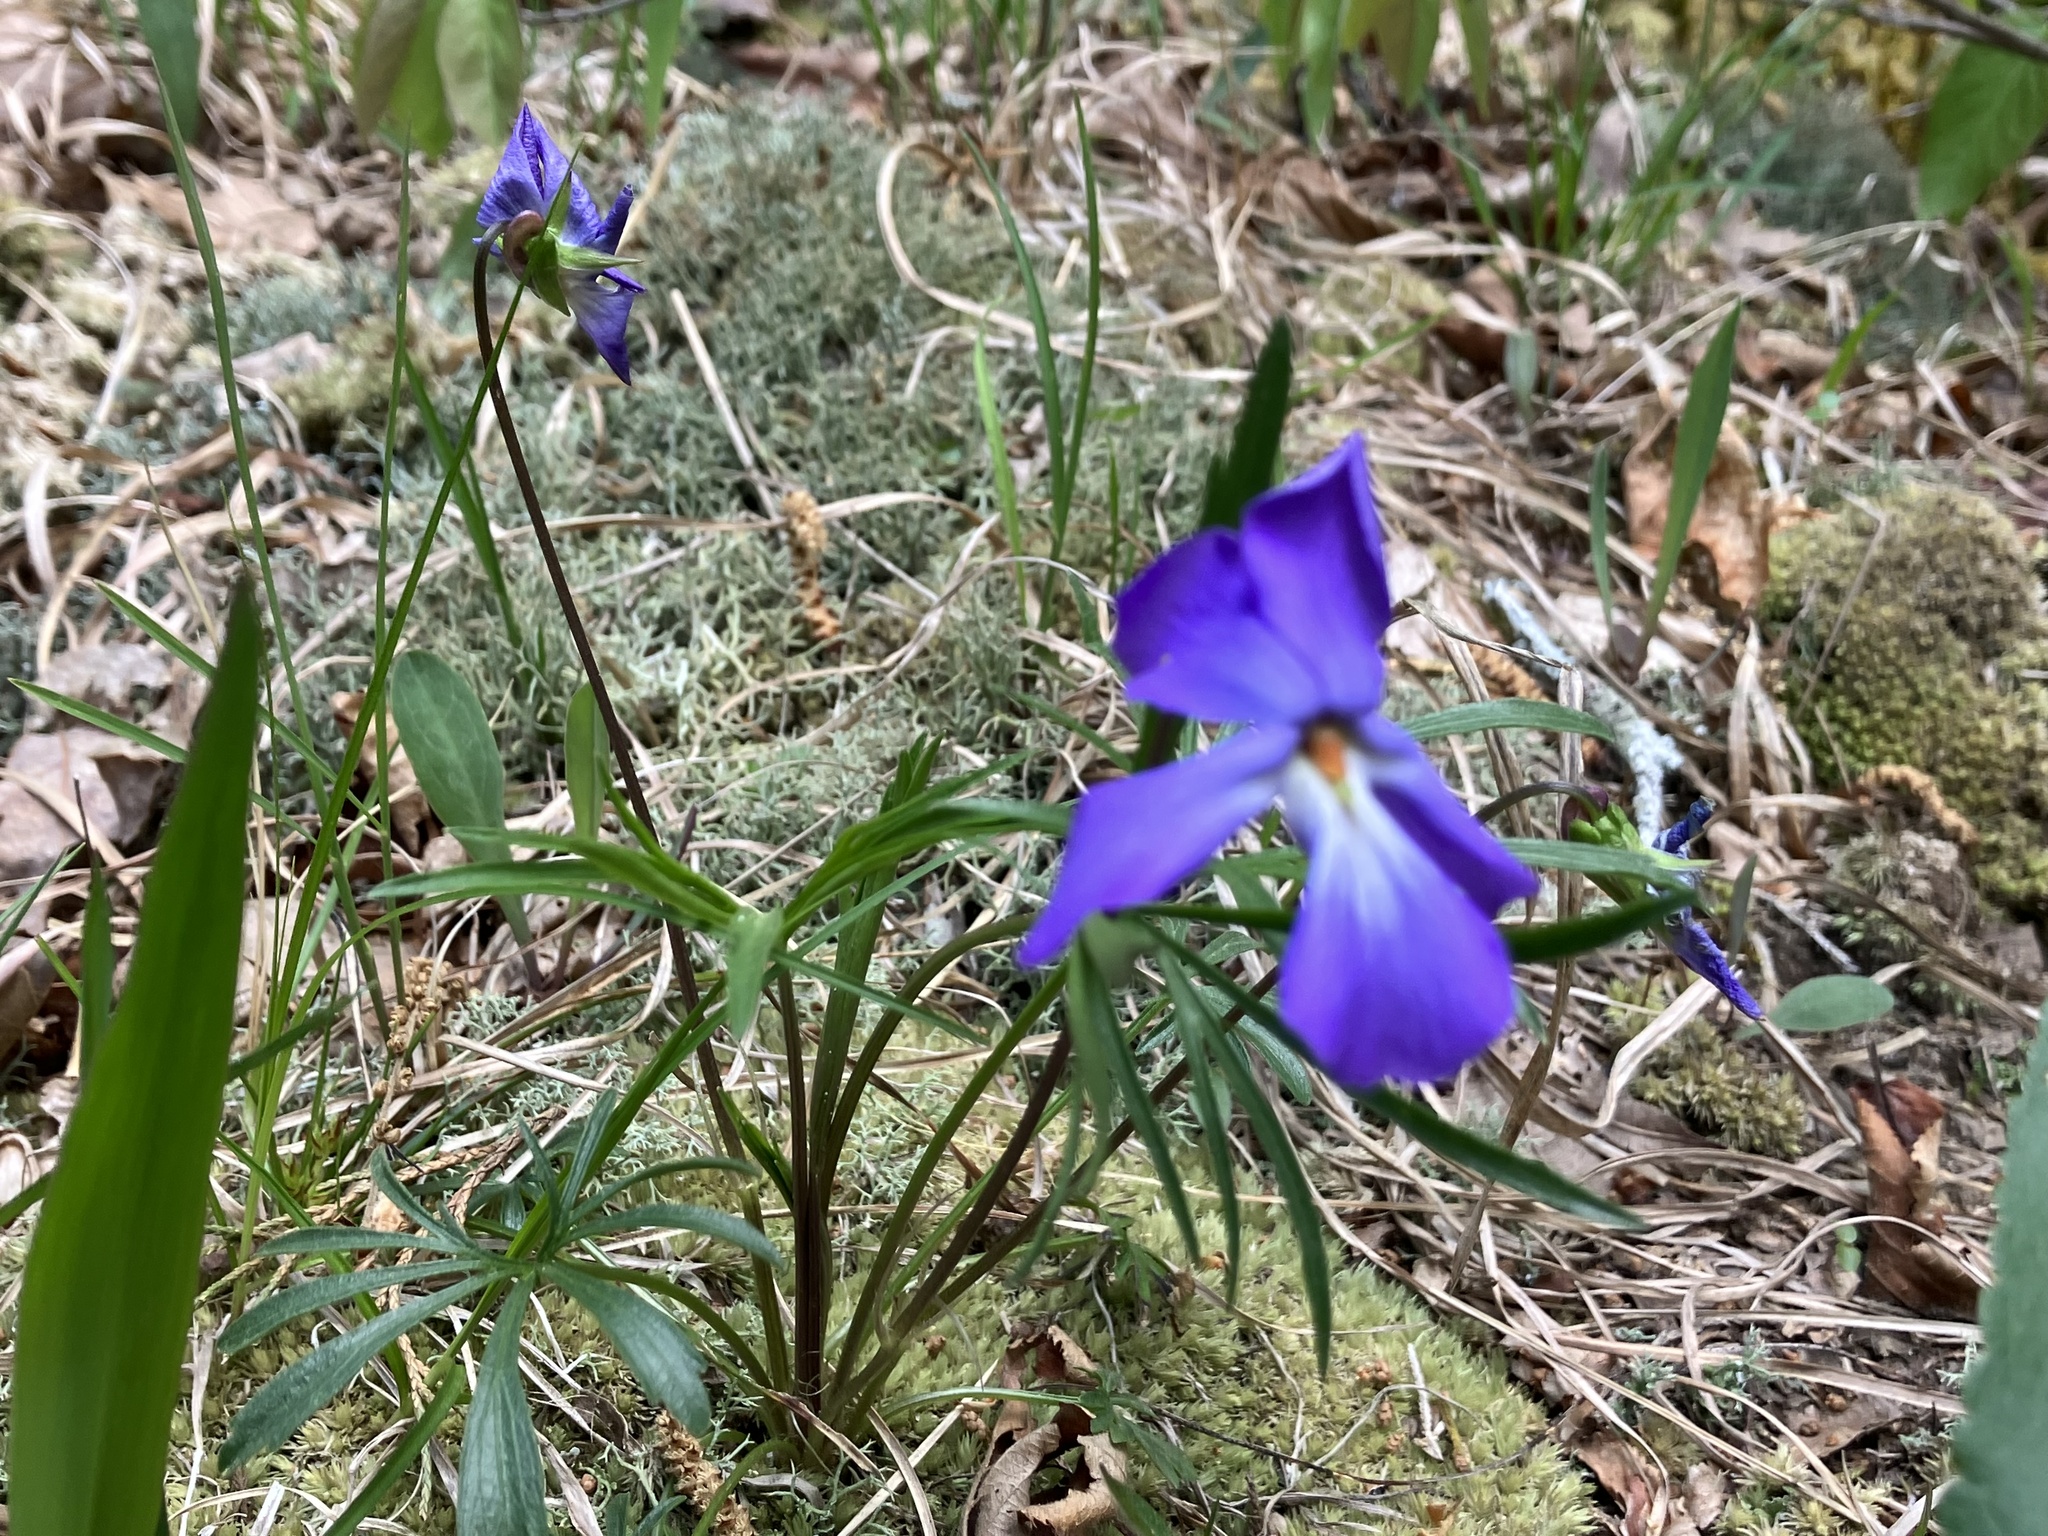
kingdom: Plantae
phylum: Tracheophyta
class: Magnoliopsida
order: Malpighiales
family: Violaceae
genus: Viola
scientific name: Viola pedata
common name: Pansy violet
